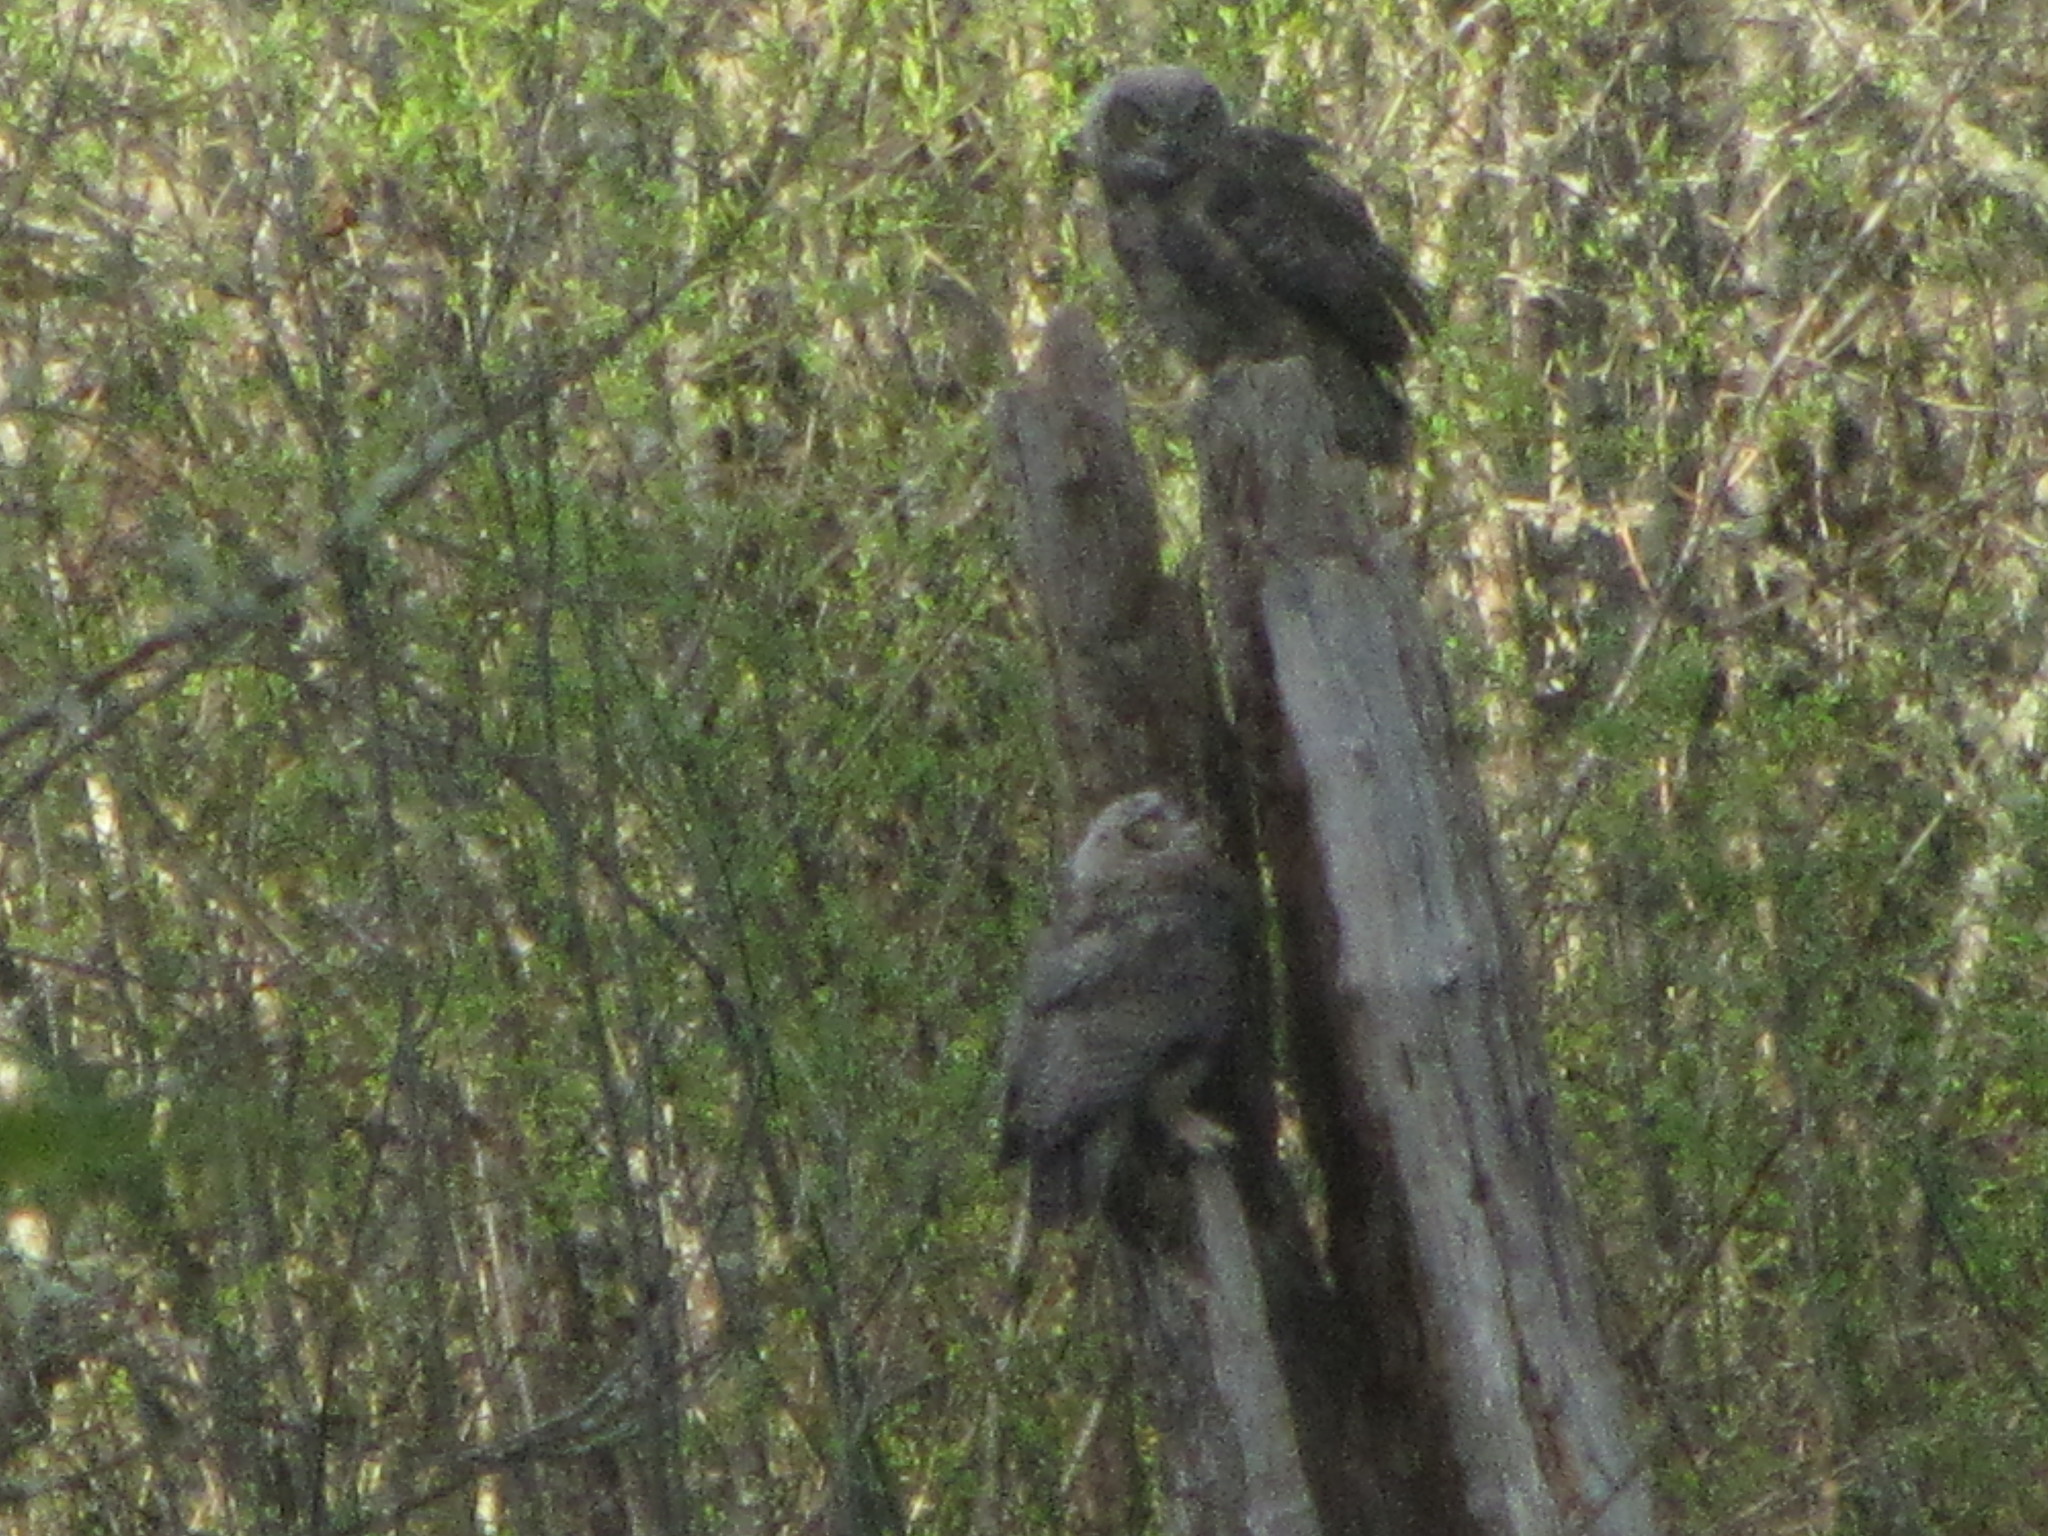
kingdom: Animalia
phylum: Chordata
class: Aves
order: Strigiformes
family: Strigidae
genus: Bubo
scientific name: Bubo virginianus
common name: Great horned owl
